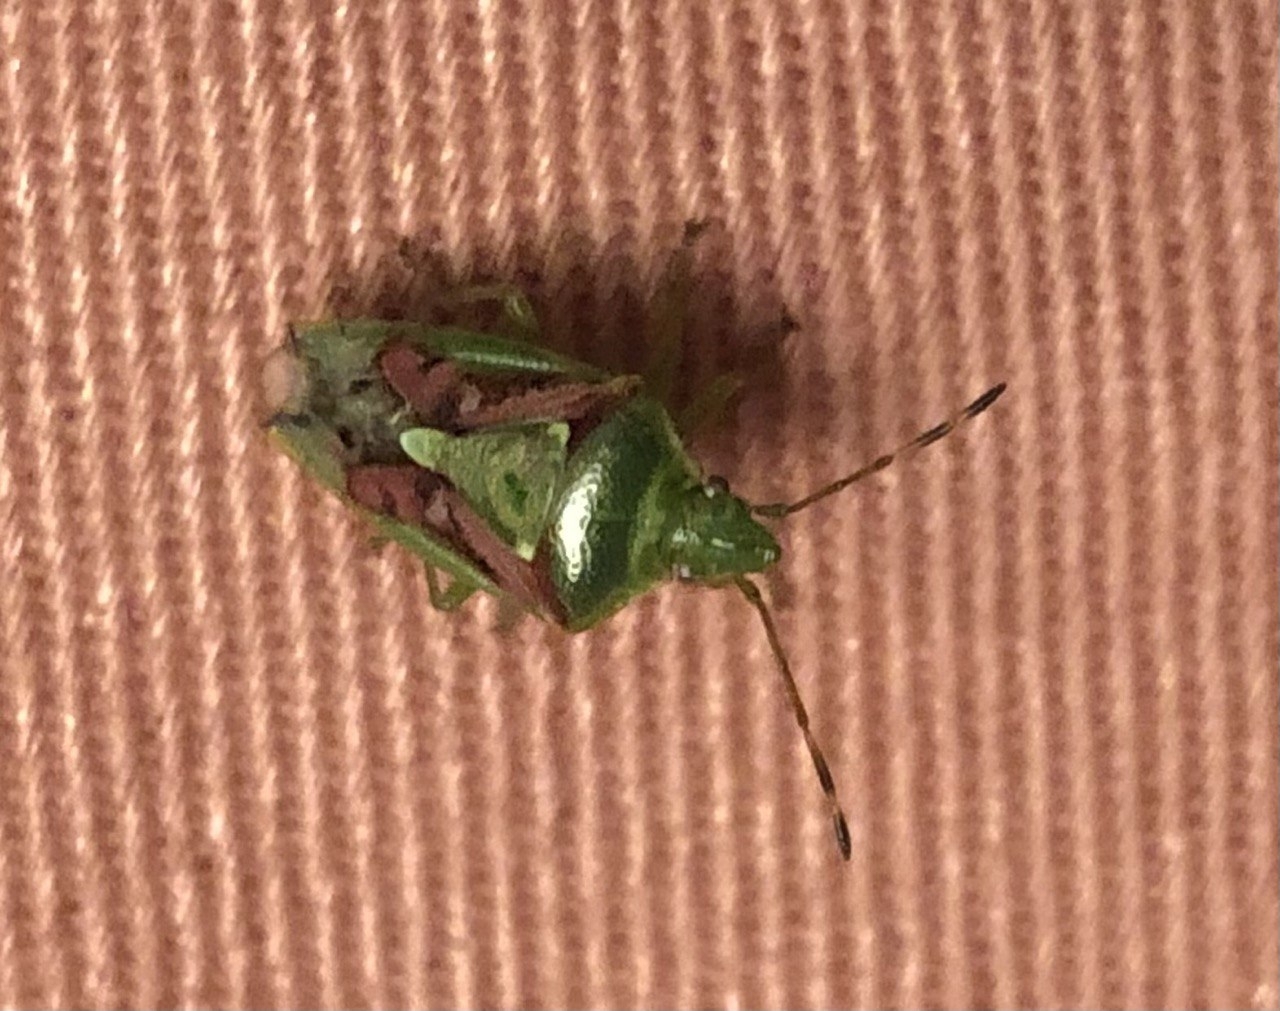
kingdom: Animalia
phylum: Arthropoda
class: Insecta
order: Hemiptera
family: Acanthosomatidae
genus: Cyphostethus
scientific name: Cyphostethus tristriatus
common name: Juniper shieldbug
